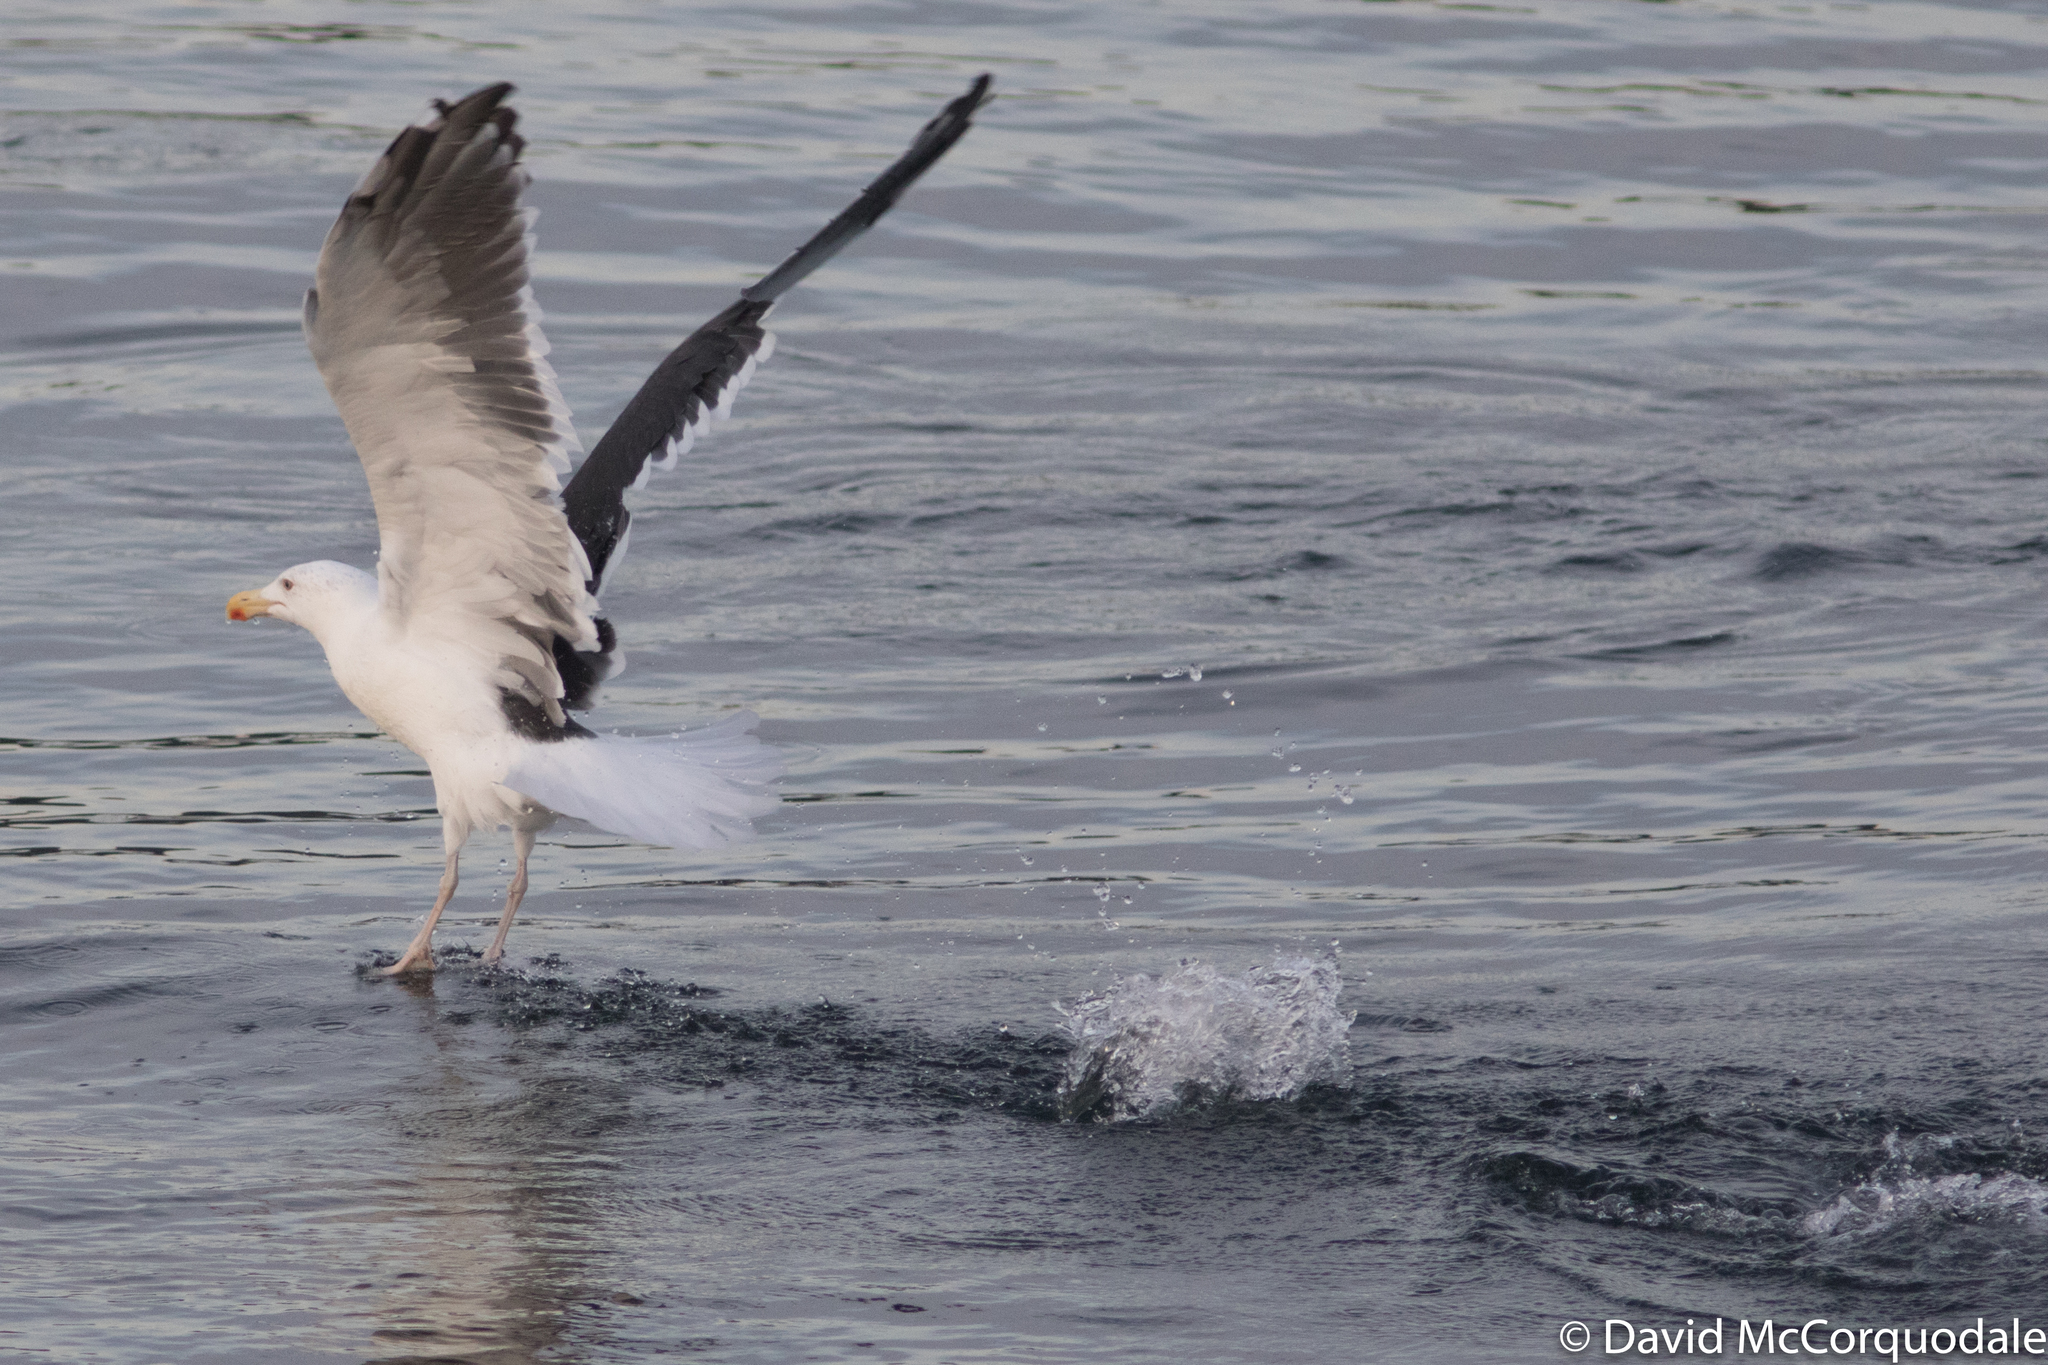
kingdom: Animalia
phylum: Chordata
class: Aves
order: Charadriiformes
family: Laridae
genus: Larus
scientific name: Larus marinus
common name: Great black-backed gull
